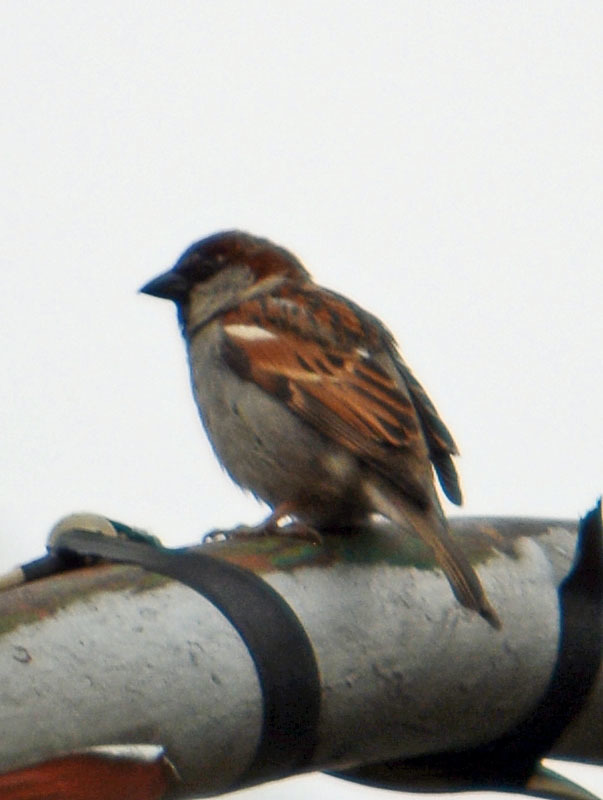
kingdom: Animalia
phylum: Chordata
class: Aves
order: Passeriformes
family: Passeridae
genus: Passer
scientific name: Passer domesticus
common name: House sparrow
